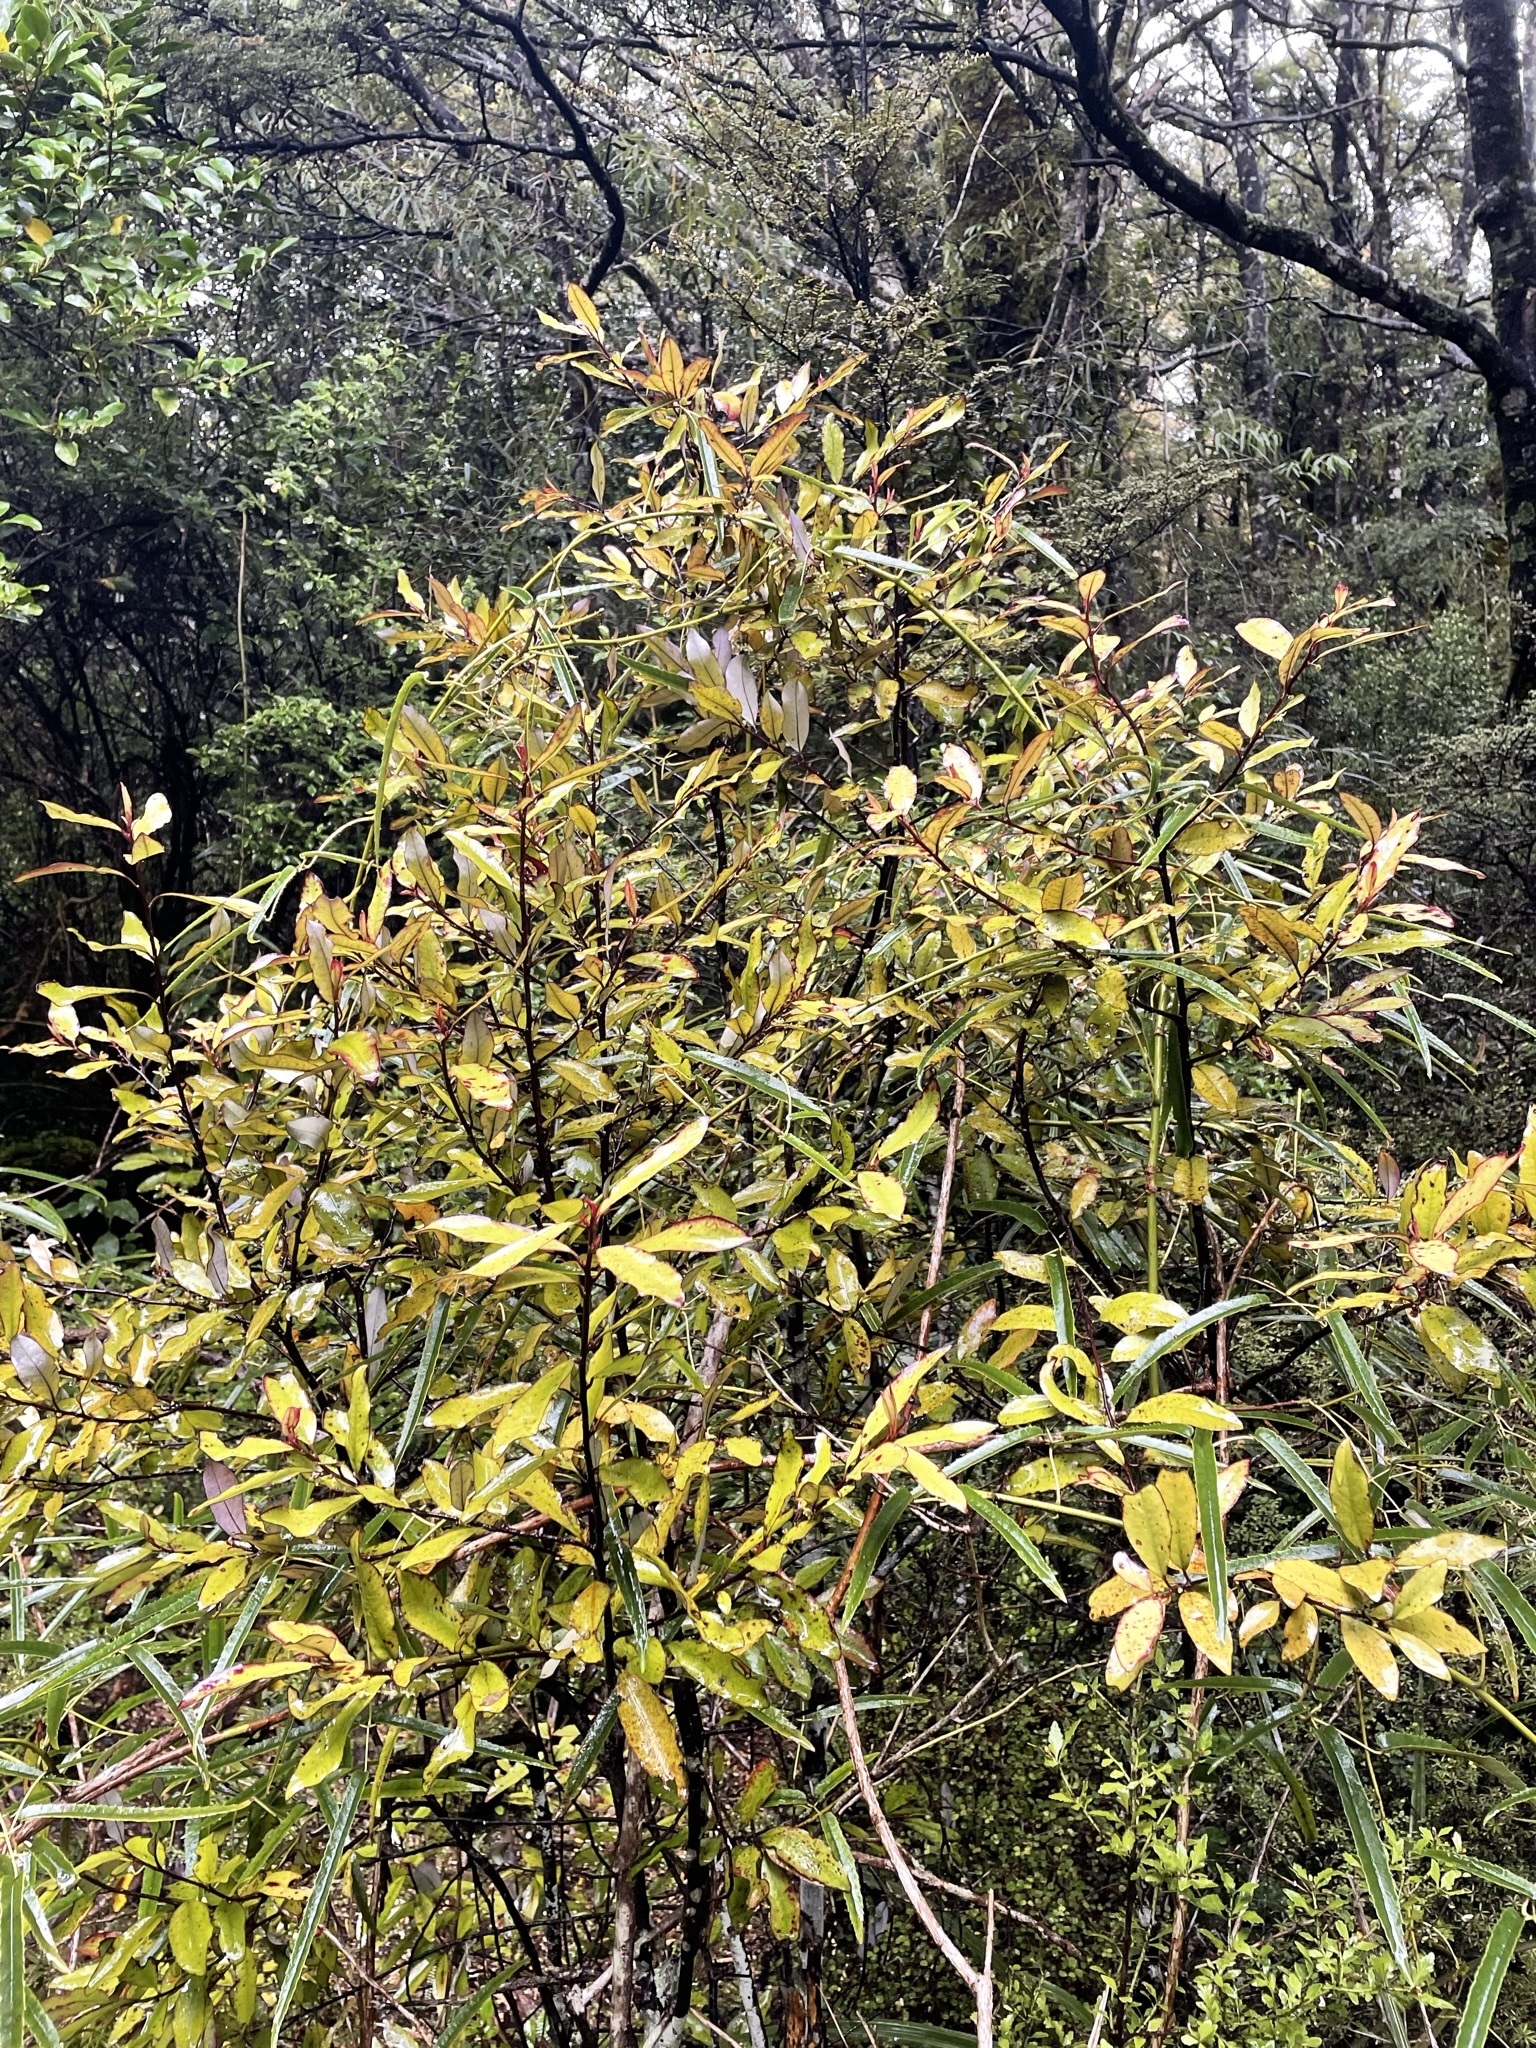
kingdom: Plantae
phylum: Tracheophyta
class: Magnoliopsida
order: Canellales
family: Winteraceae
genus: Pseudowintera
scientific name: Pseudowintera colorata
